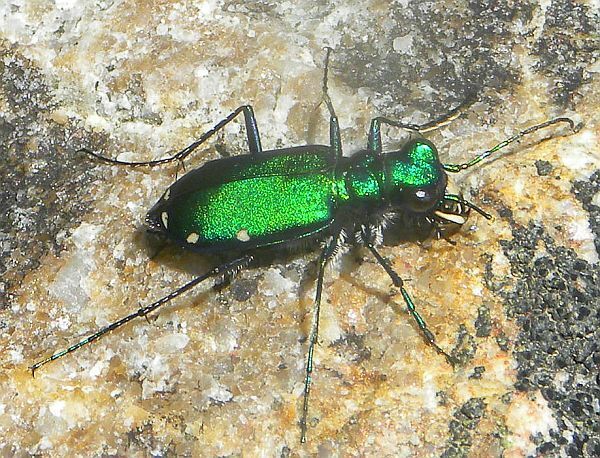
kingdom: Animalia
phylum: Arthropoda
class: Insecta
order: Coleoptera
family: Carabidae
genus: Cicindela
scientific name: Cicindela sexguttata
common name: Six-spotted tiger beetle
